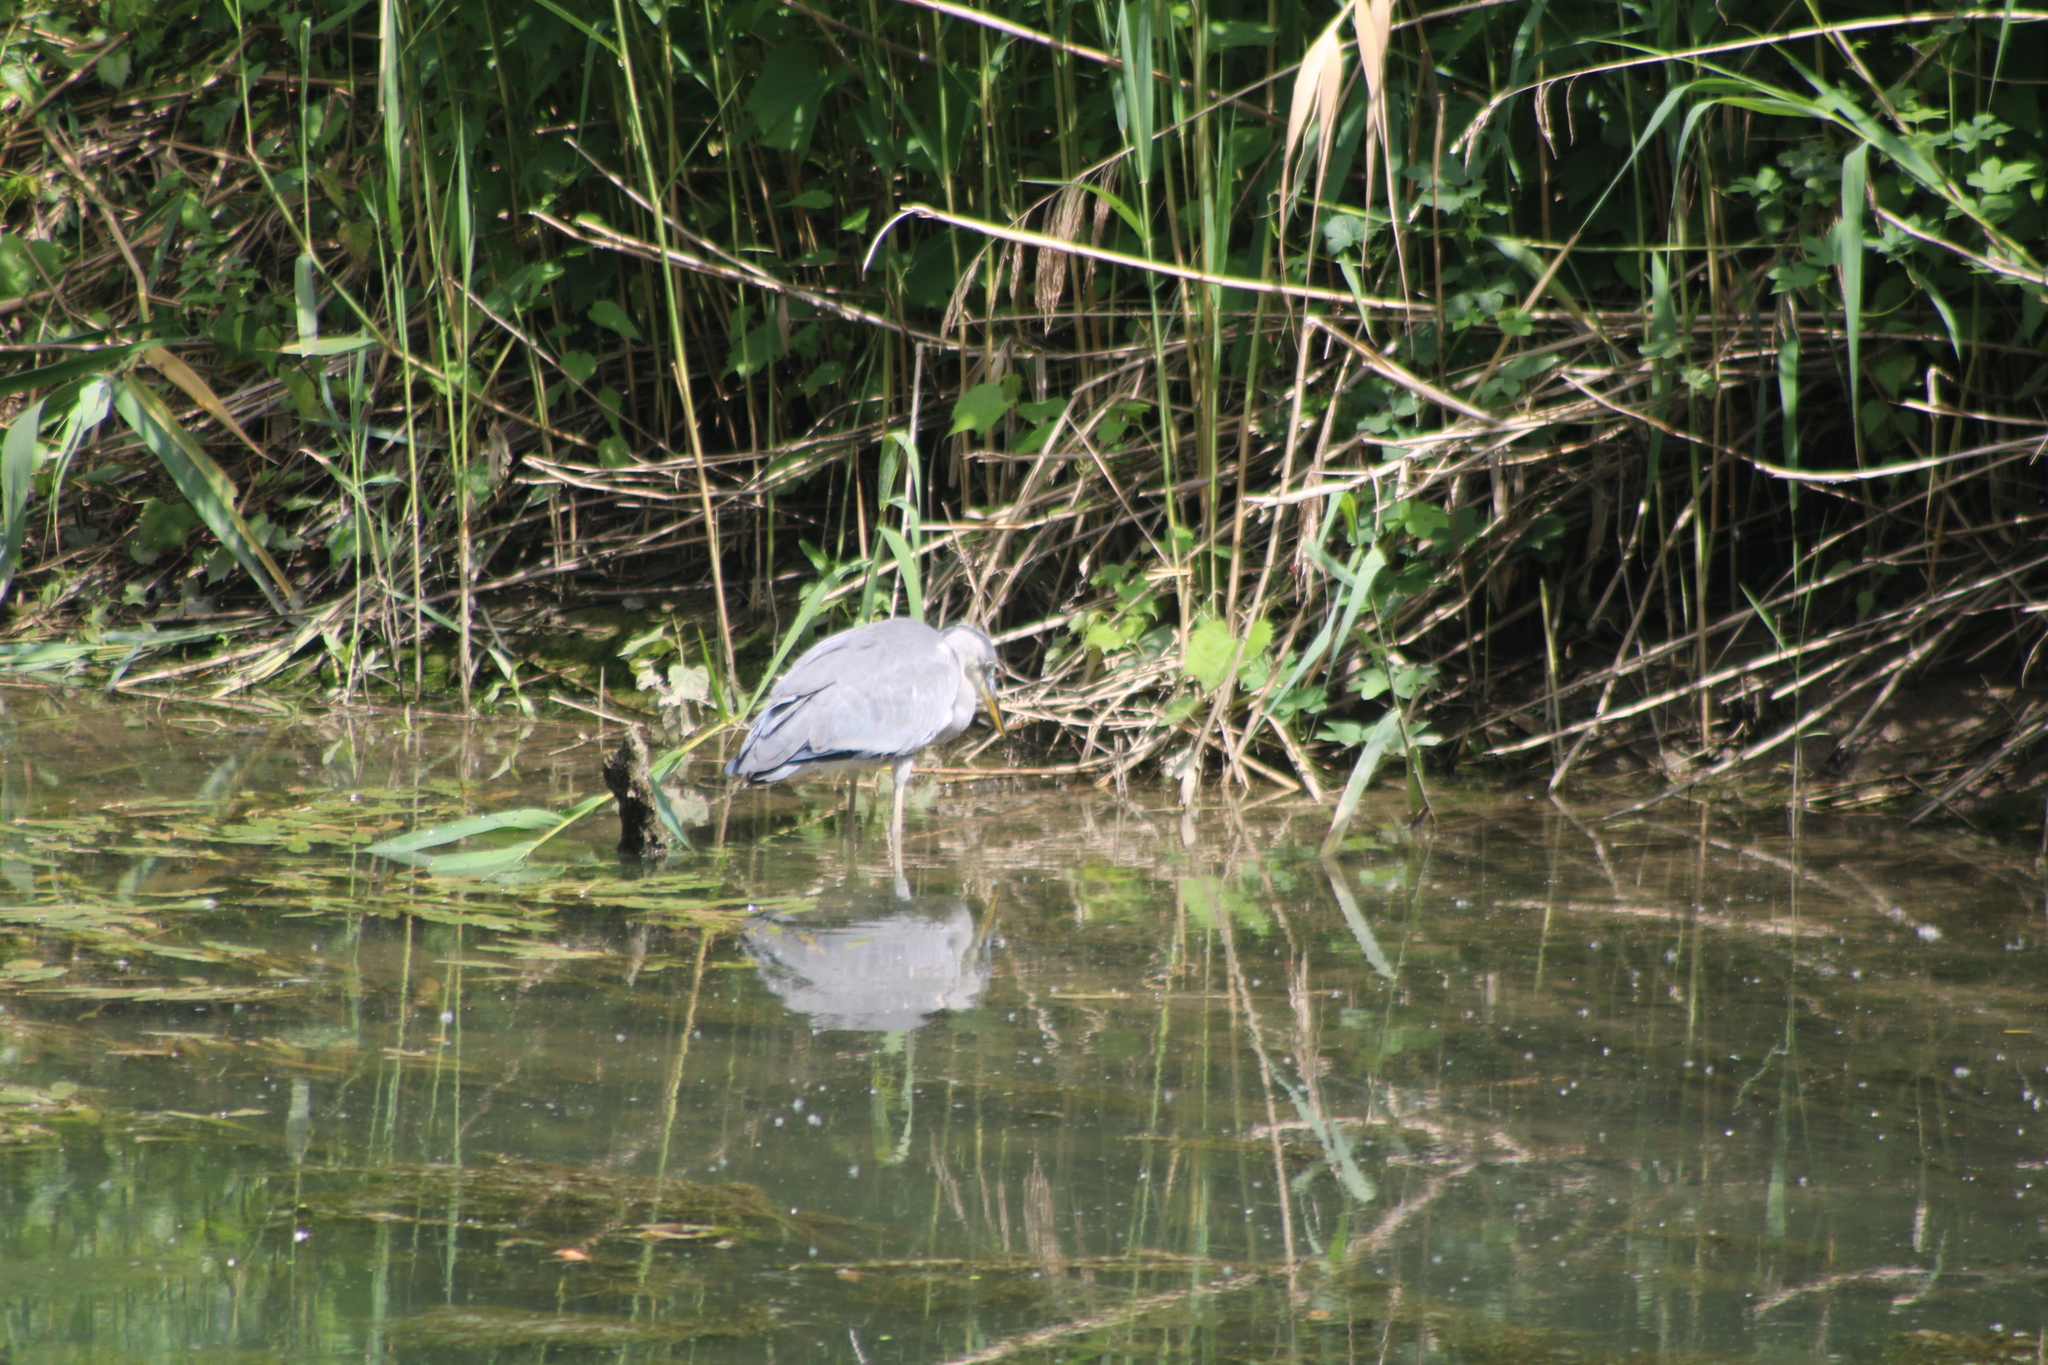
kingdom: Animalia
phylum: Chordata
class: Aves
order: Pelecaniformes
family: Ardeidae
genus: Ardea
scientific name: Ardea cinerea
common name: Grey heron
